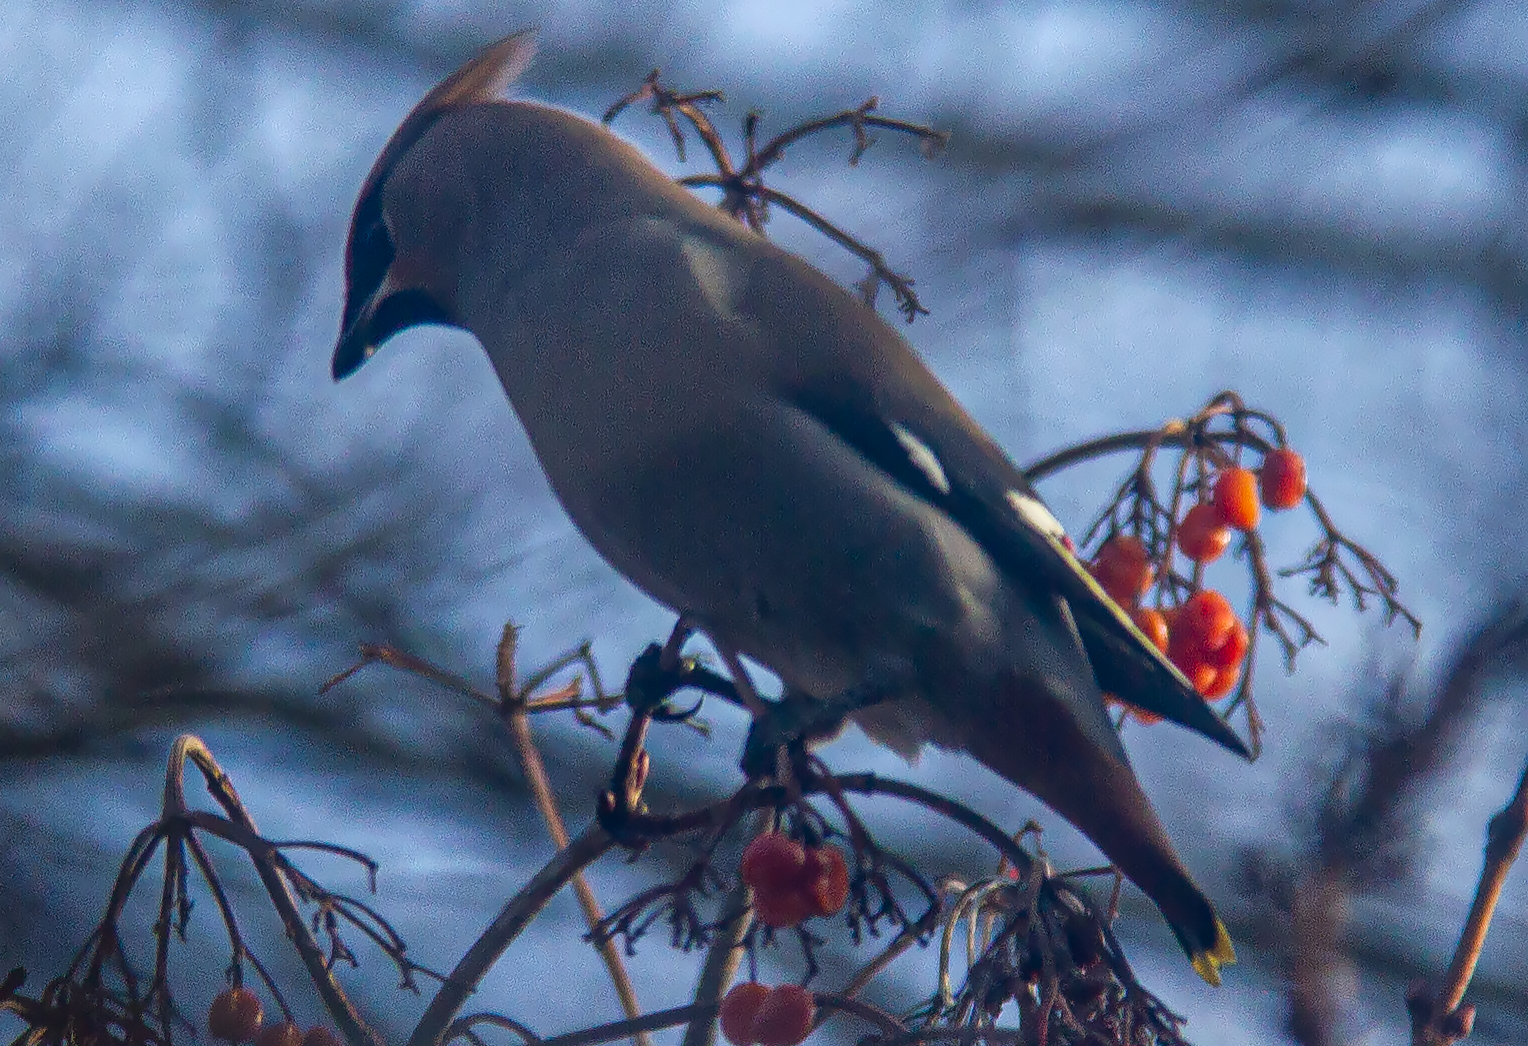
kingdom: Animalia
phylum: Chordata
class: Aves
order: Passeriformes
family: Bombycillidae
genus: Bombycilla
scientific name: Bombycilla garrulus
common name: Bohemian waxwing
